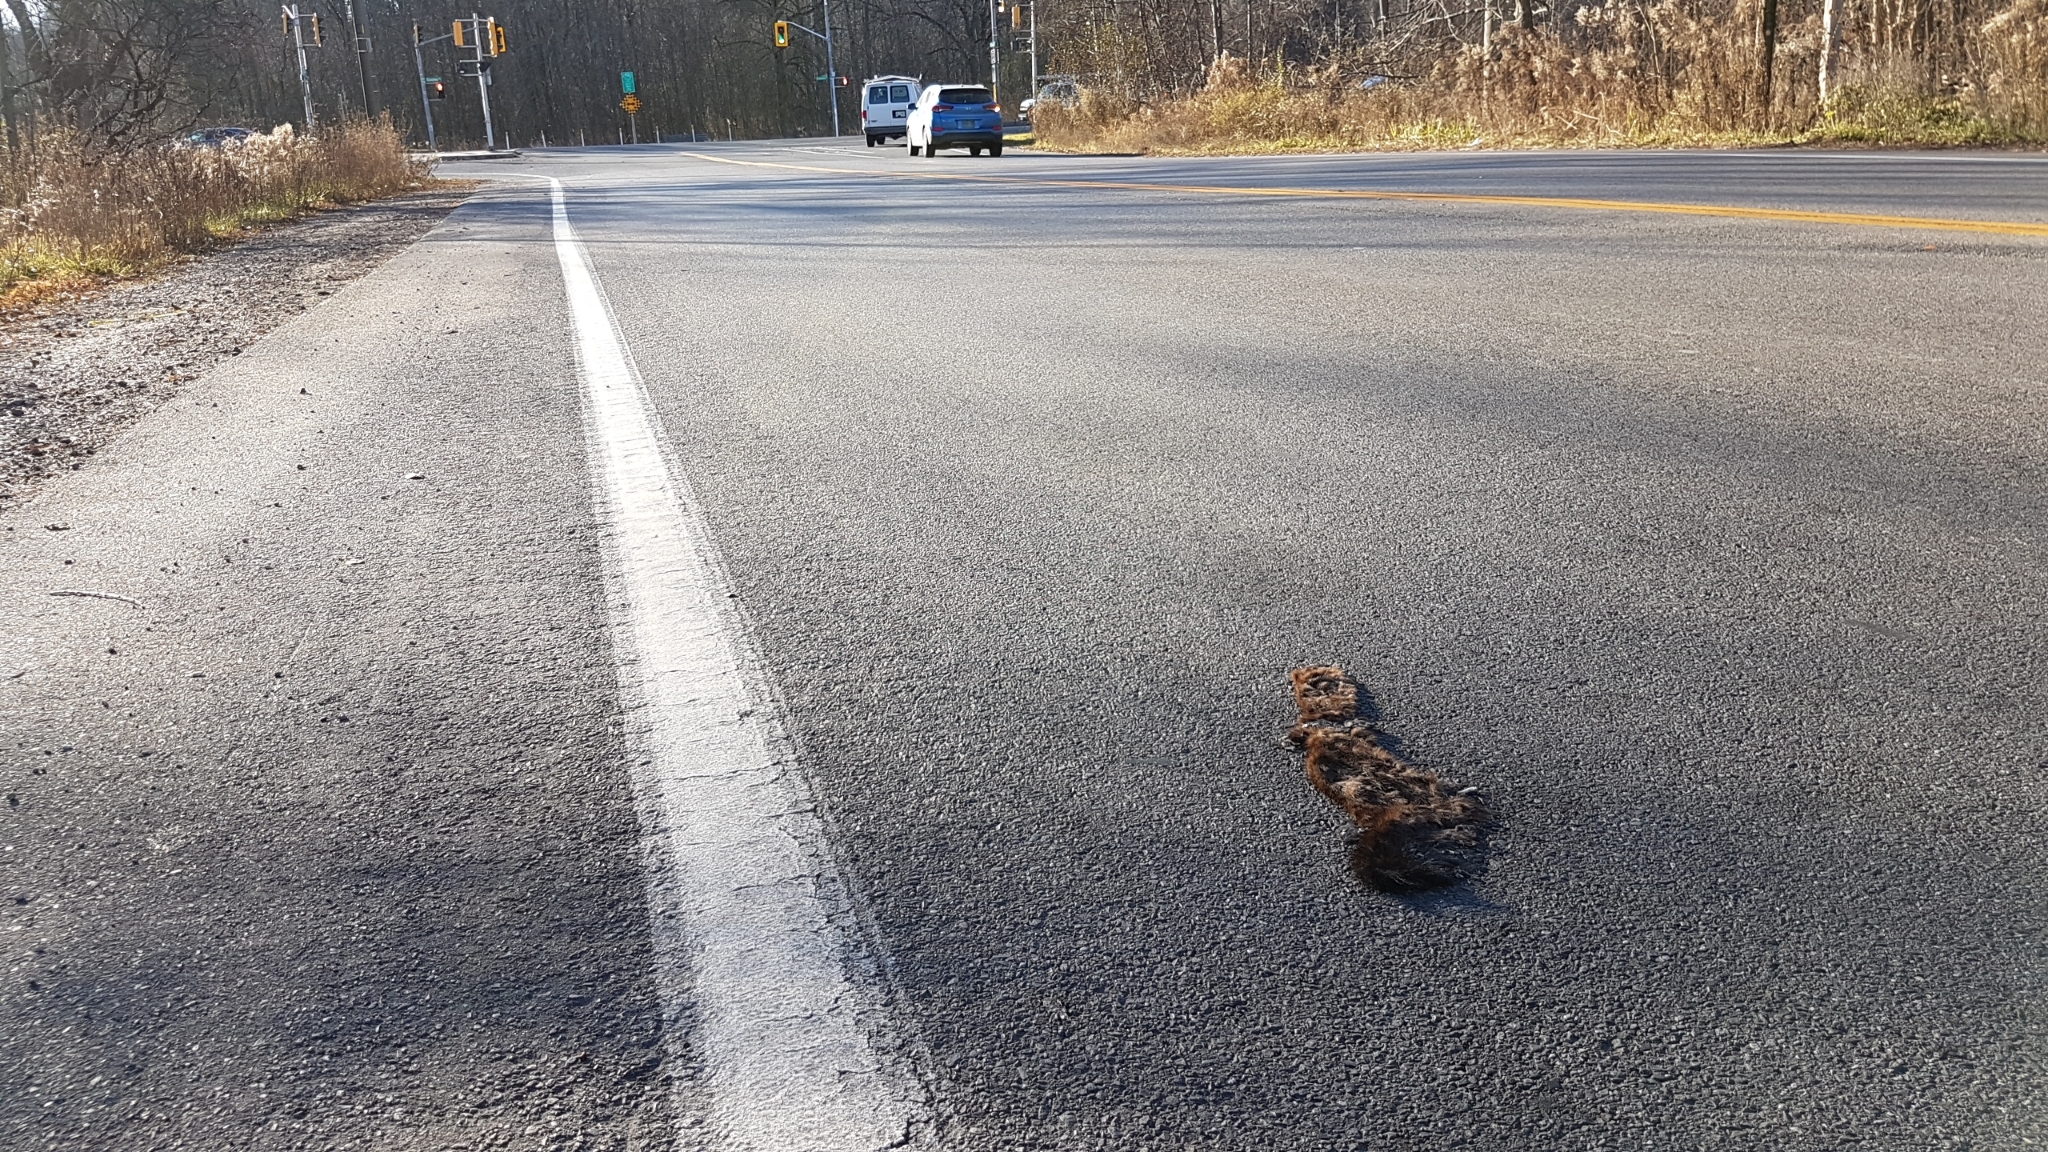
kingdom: Animalia
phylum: Chordata
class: Mammalia
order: Carnivora
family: Mustelidae
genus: Mustela
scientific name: Mustela
